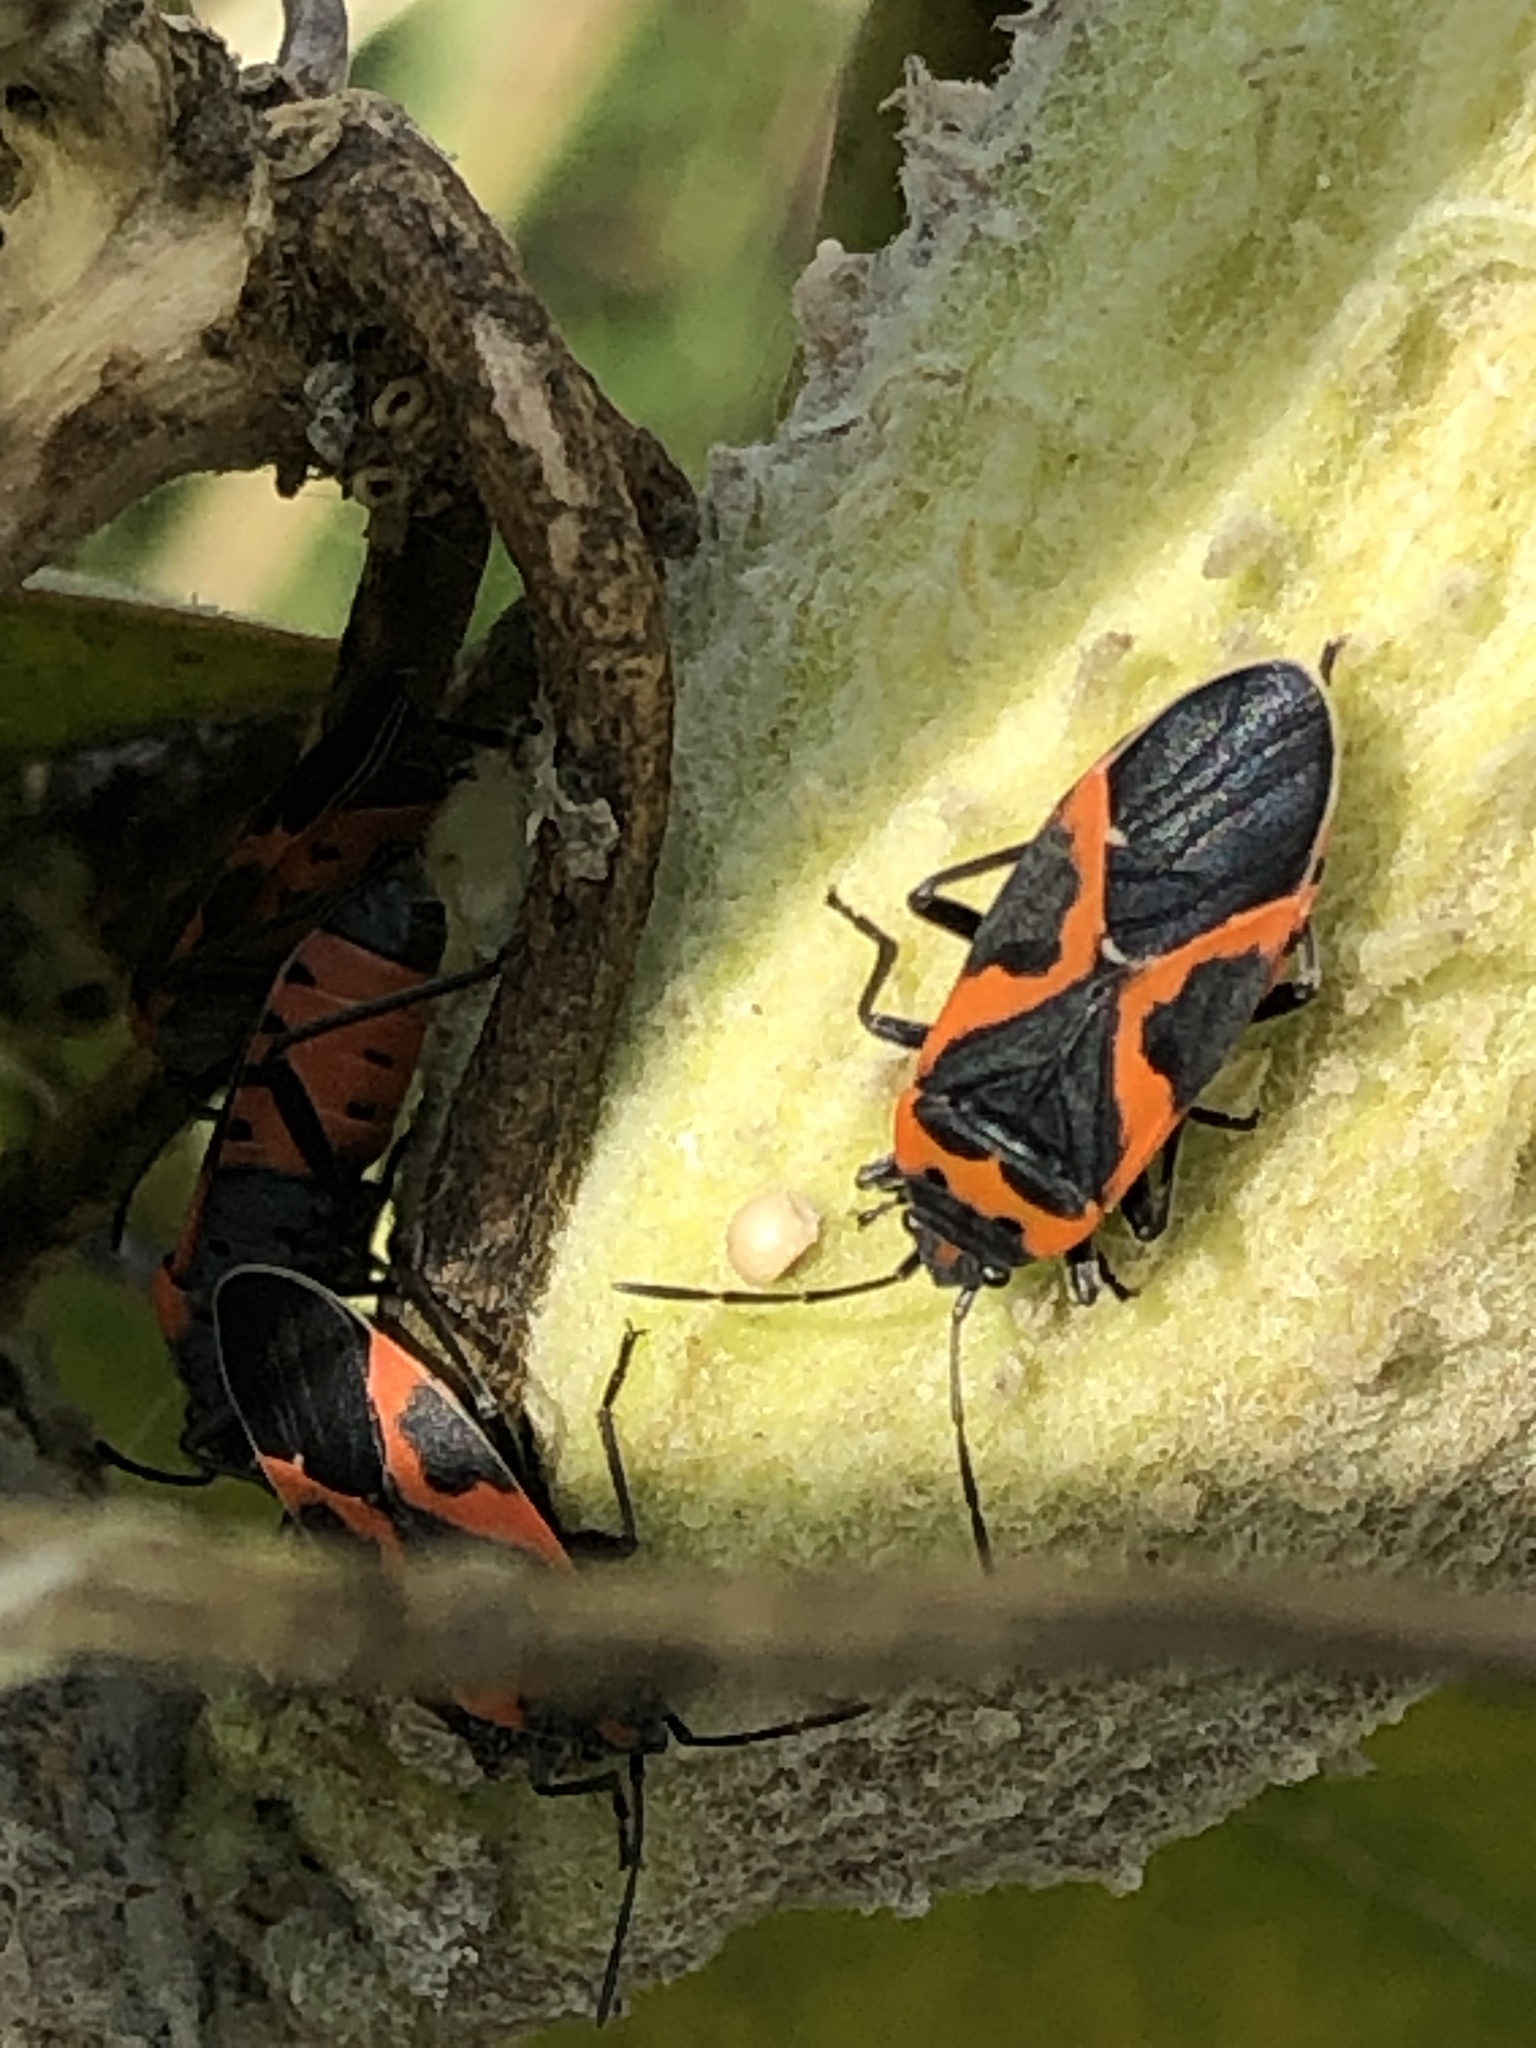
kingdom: Animalia
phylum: Arthropoda
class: Insecta
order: Hemiptera
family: Lygaeidae
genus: Lygaeus
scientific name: Lygaeus kalmii
